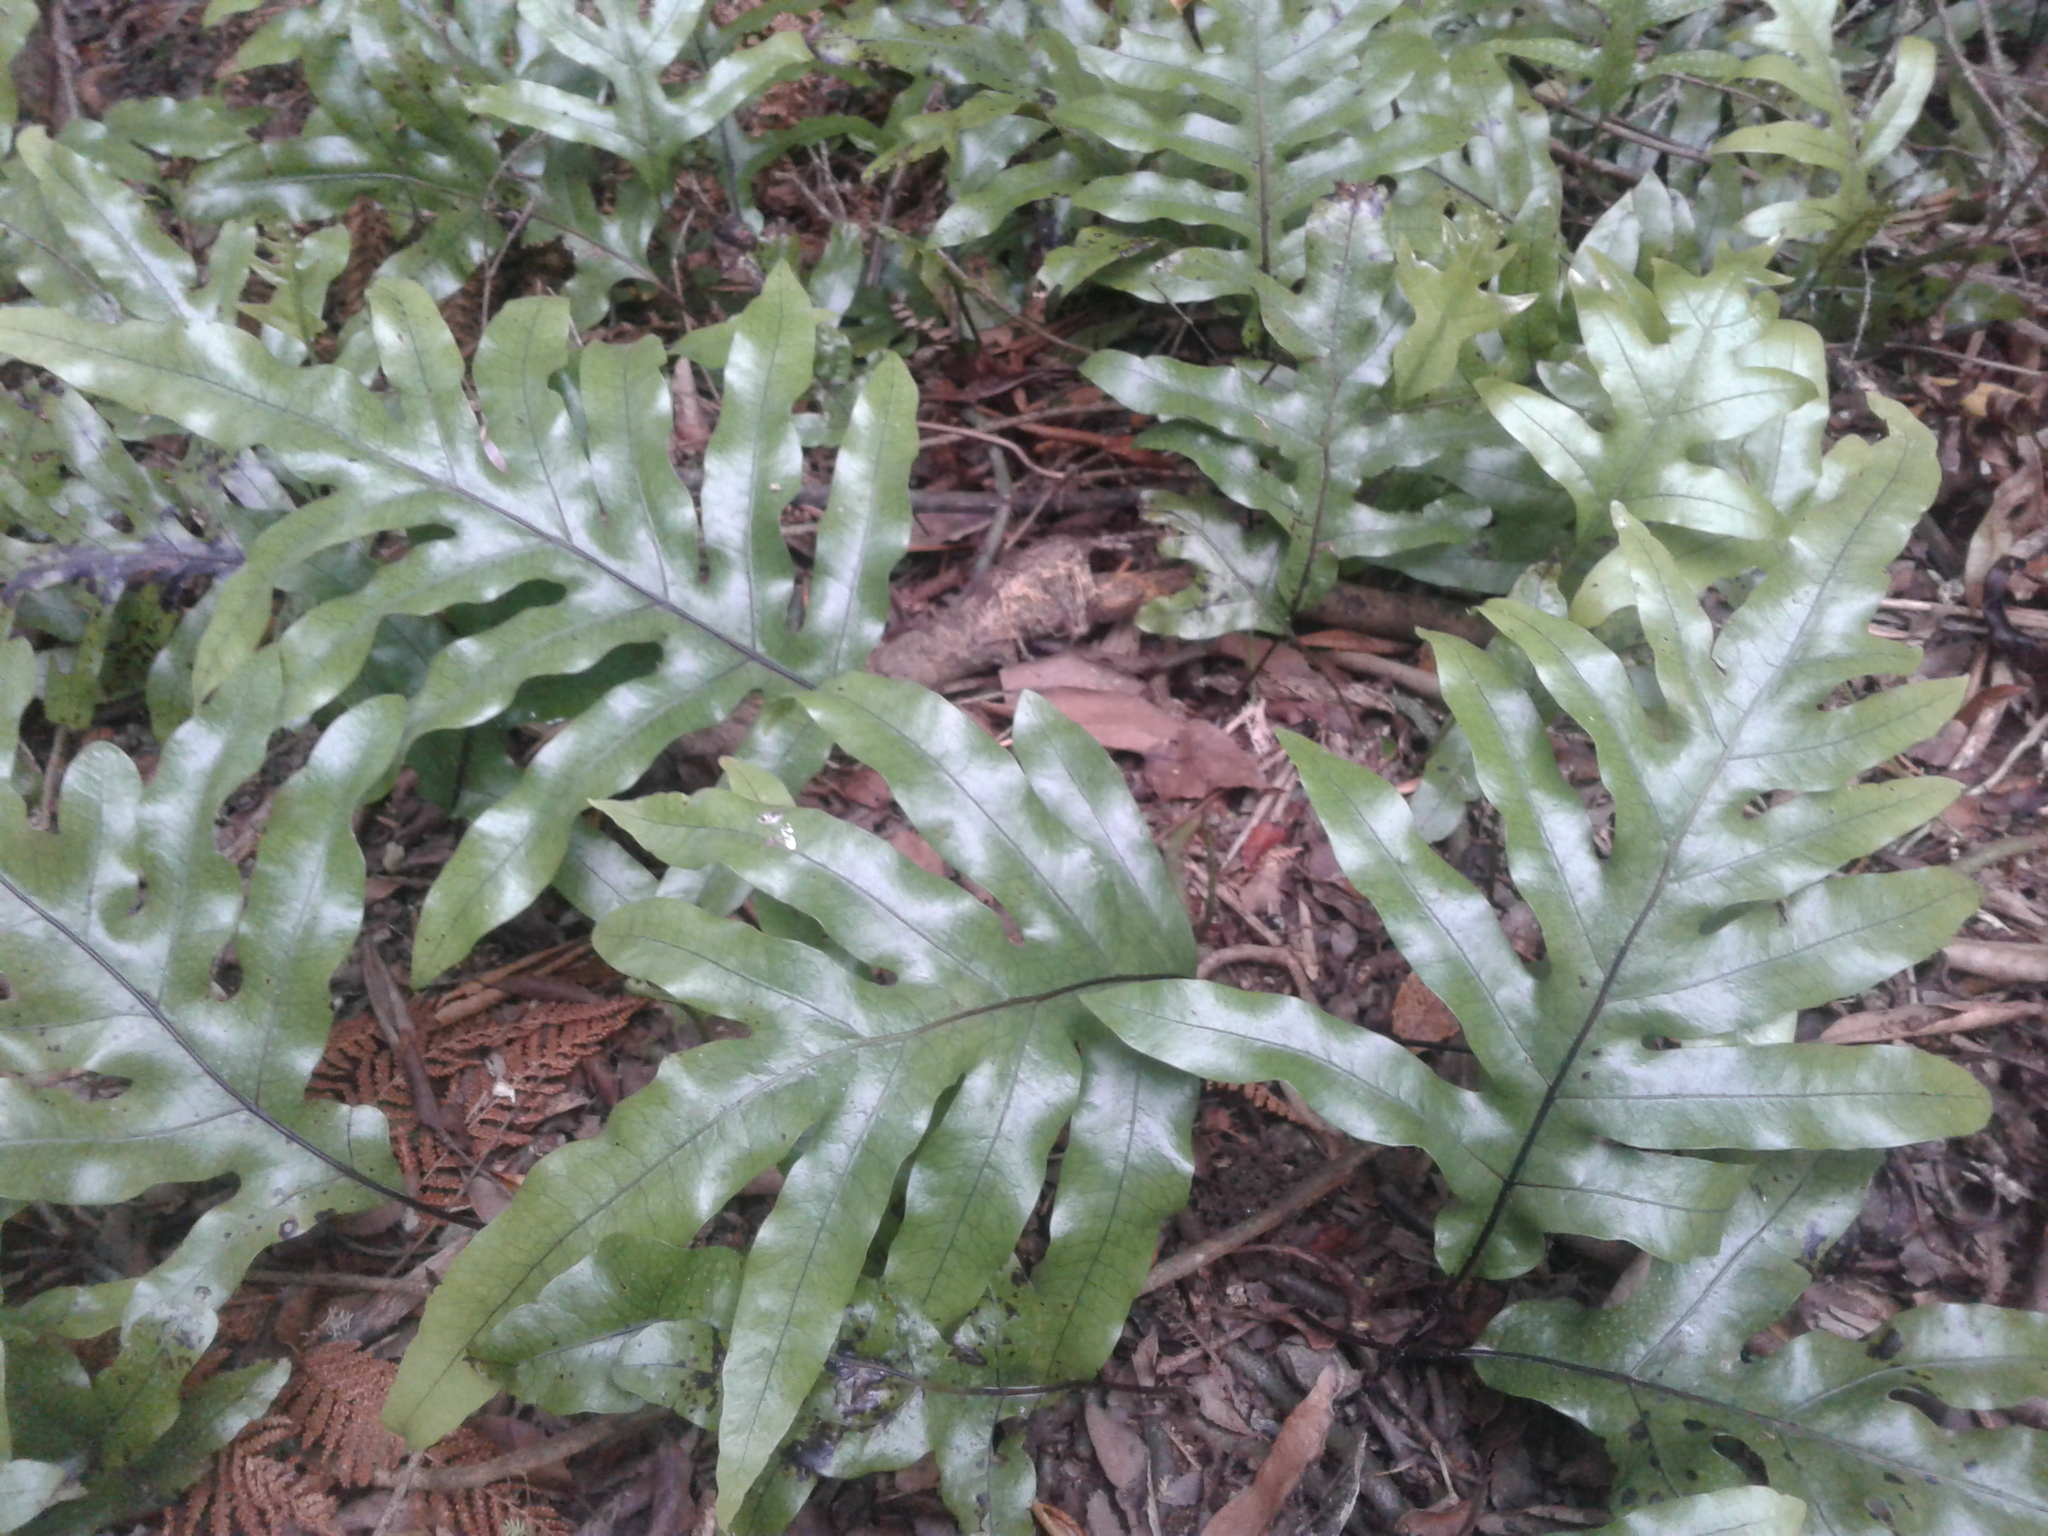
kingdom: Plantae
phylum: Tracheophyta
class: Polypodiopsida
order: Polypodiales
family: Polypodiaceae
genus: Lecanopteris
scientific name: Lecanopteris pustulata
